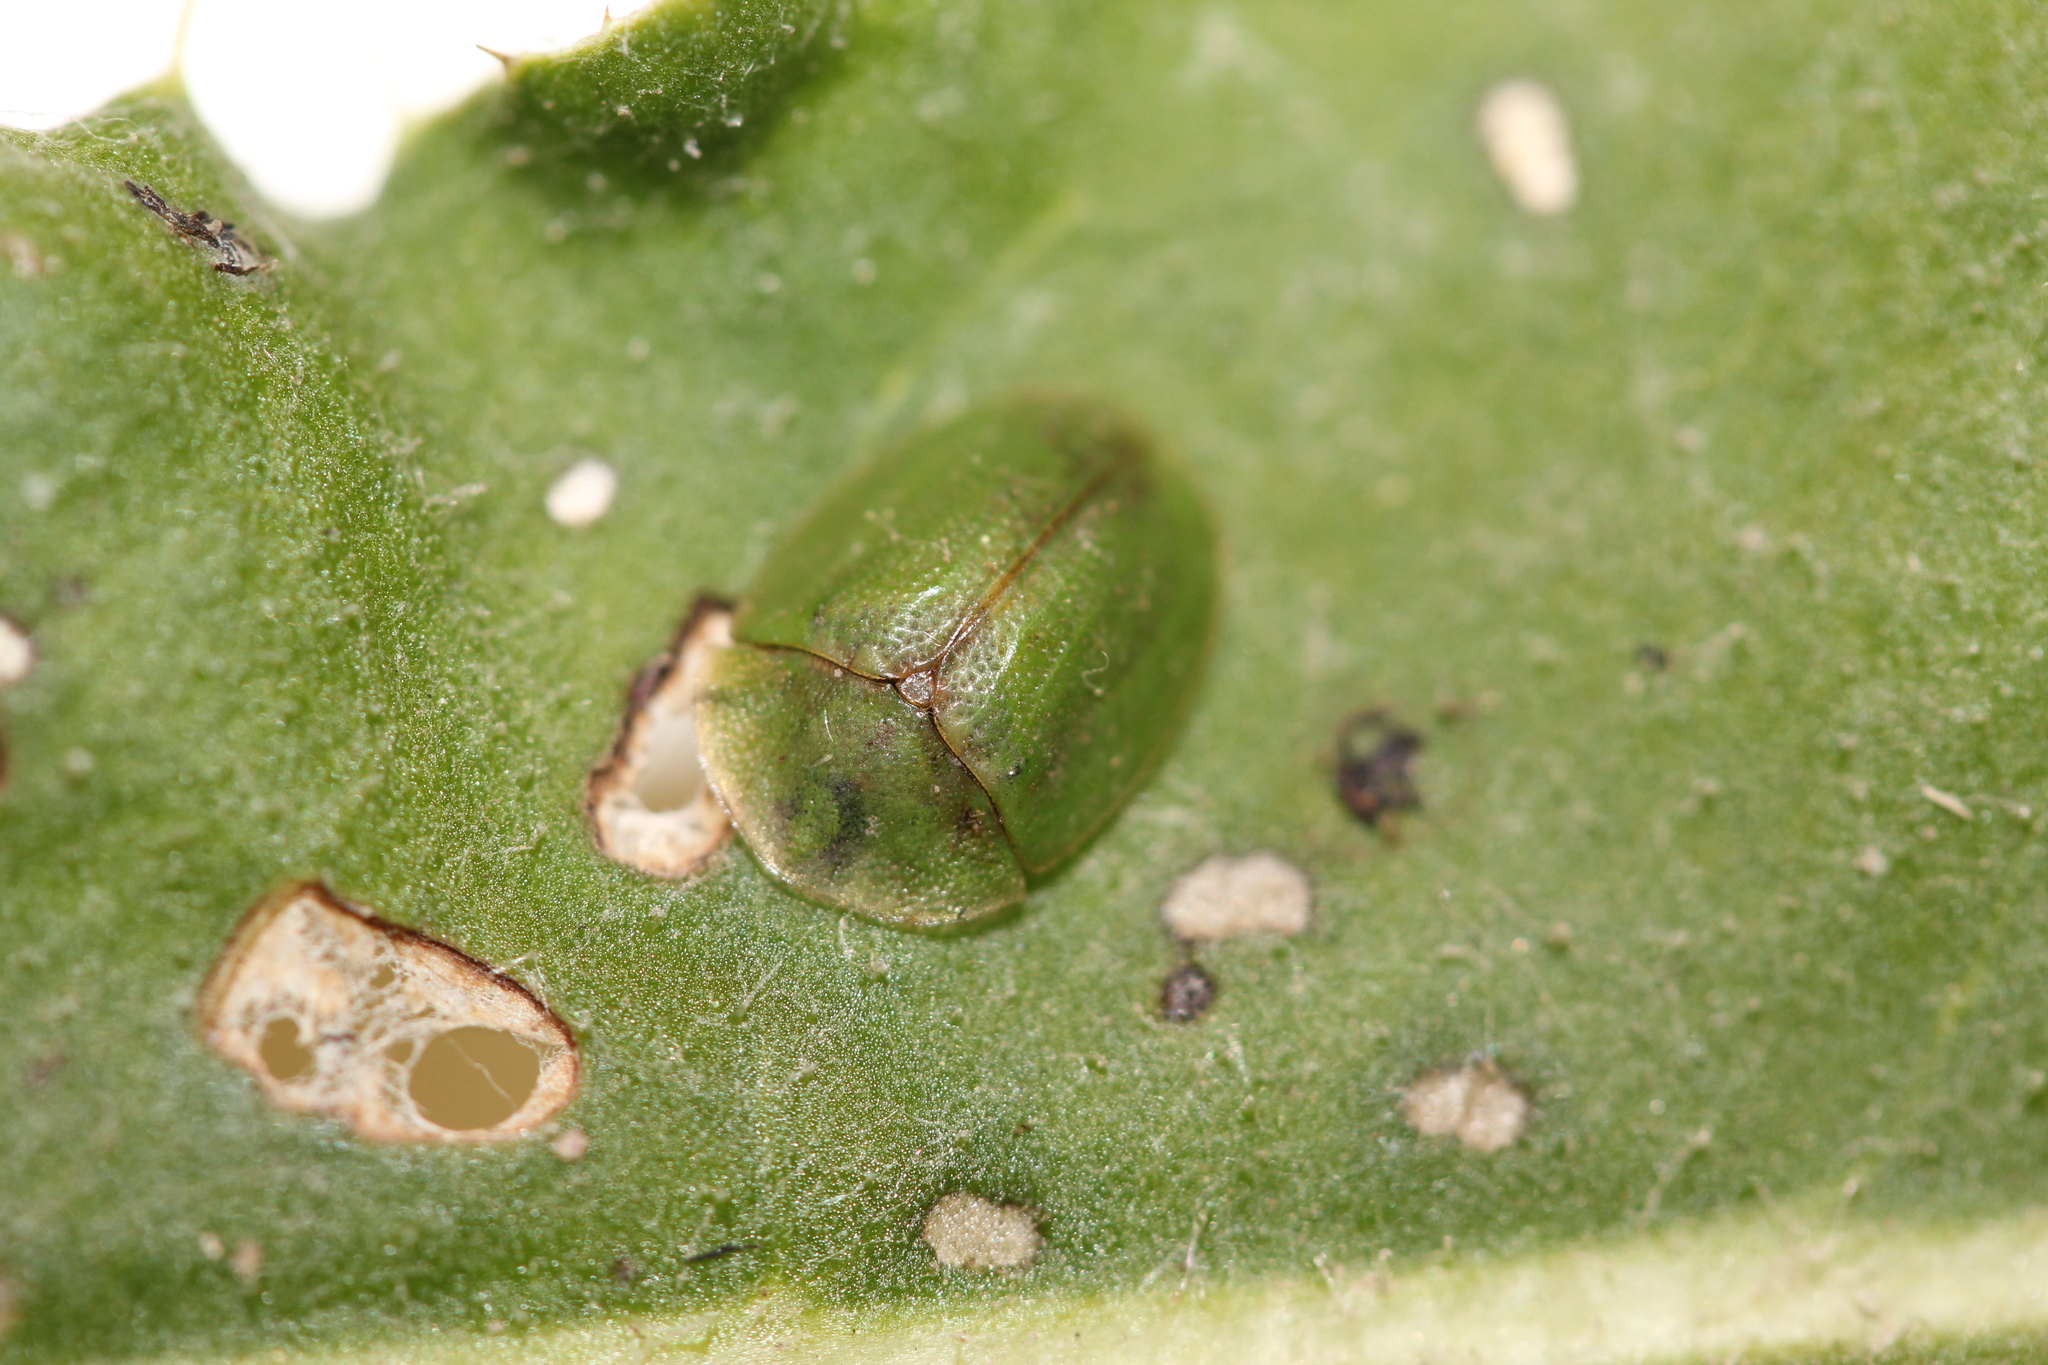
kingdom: Animalia
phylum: Arthropoda
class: Insecta
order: Coleoptera
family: Chrysomelidae
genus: Cassida
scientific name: Cassida rubiginosa
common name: Thistle tortoise beetle
